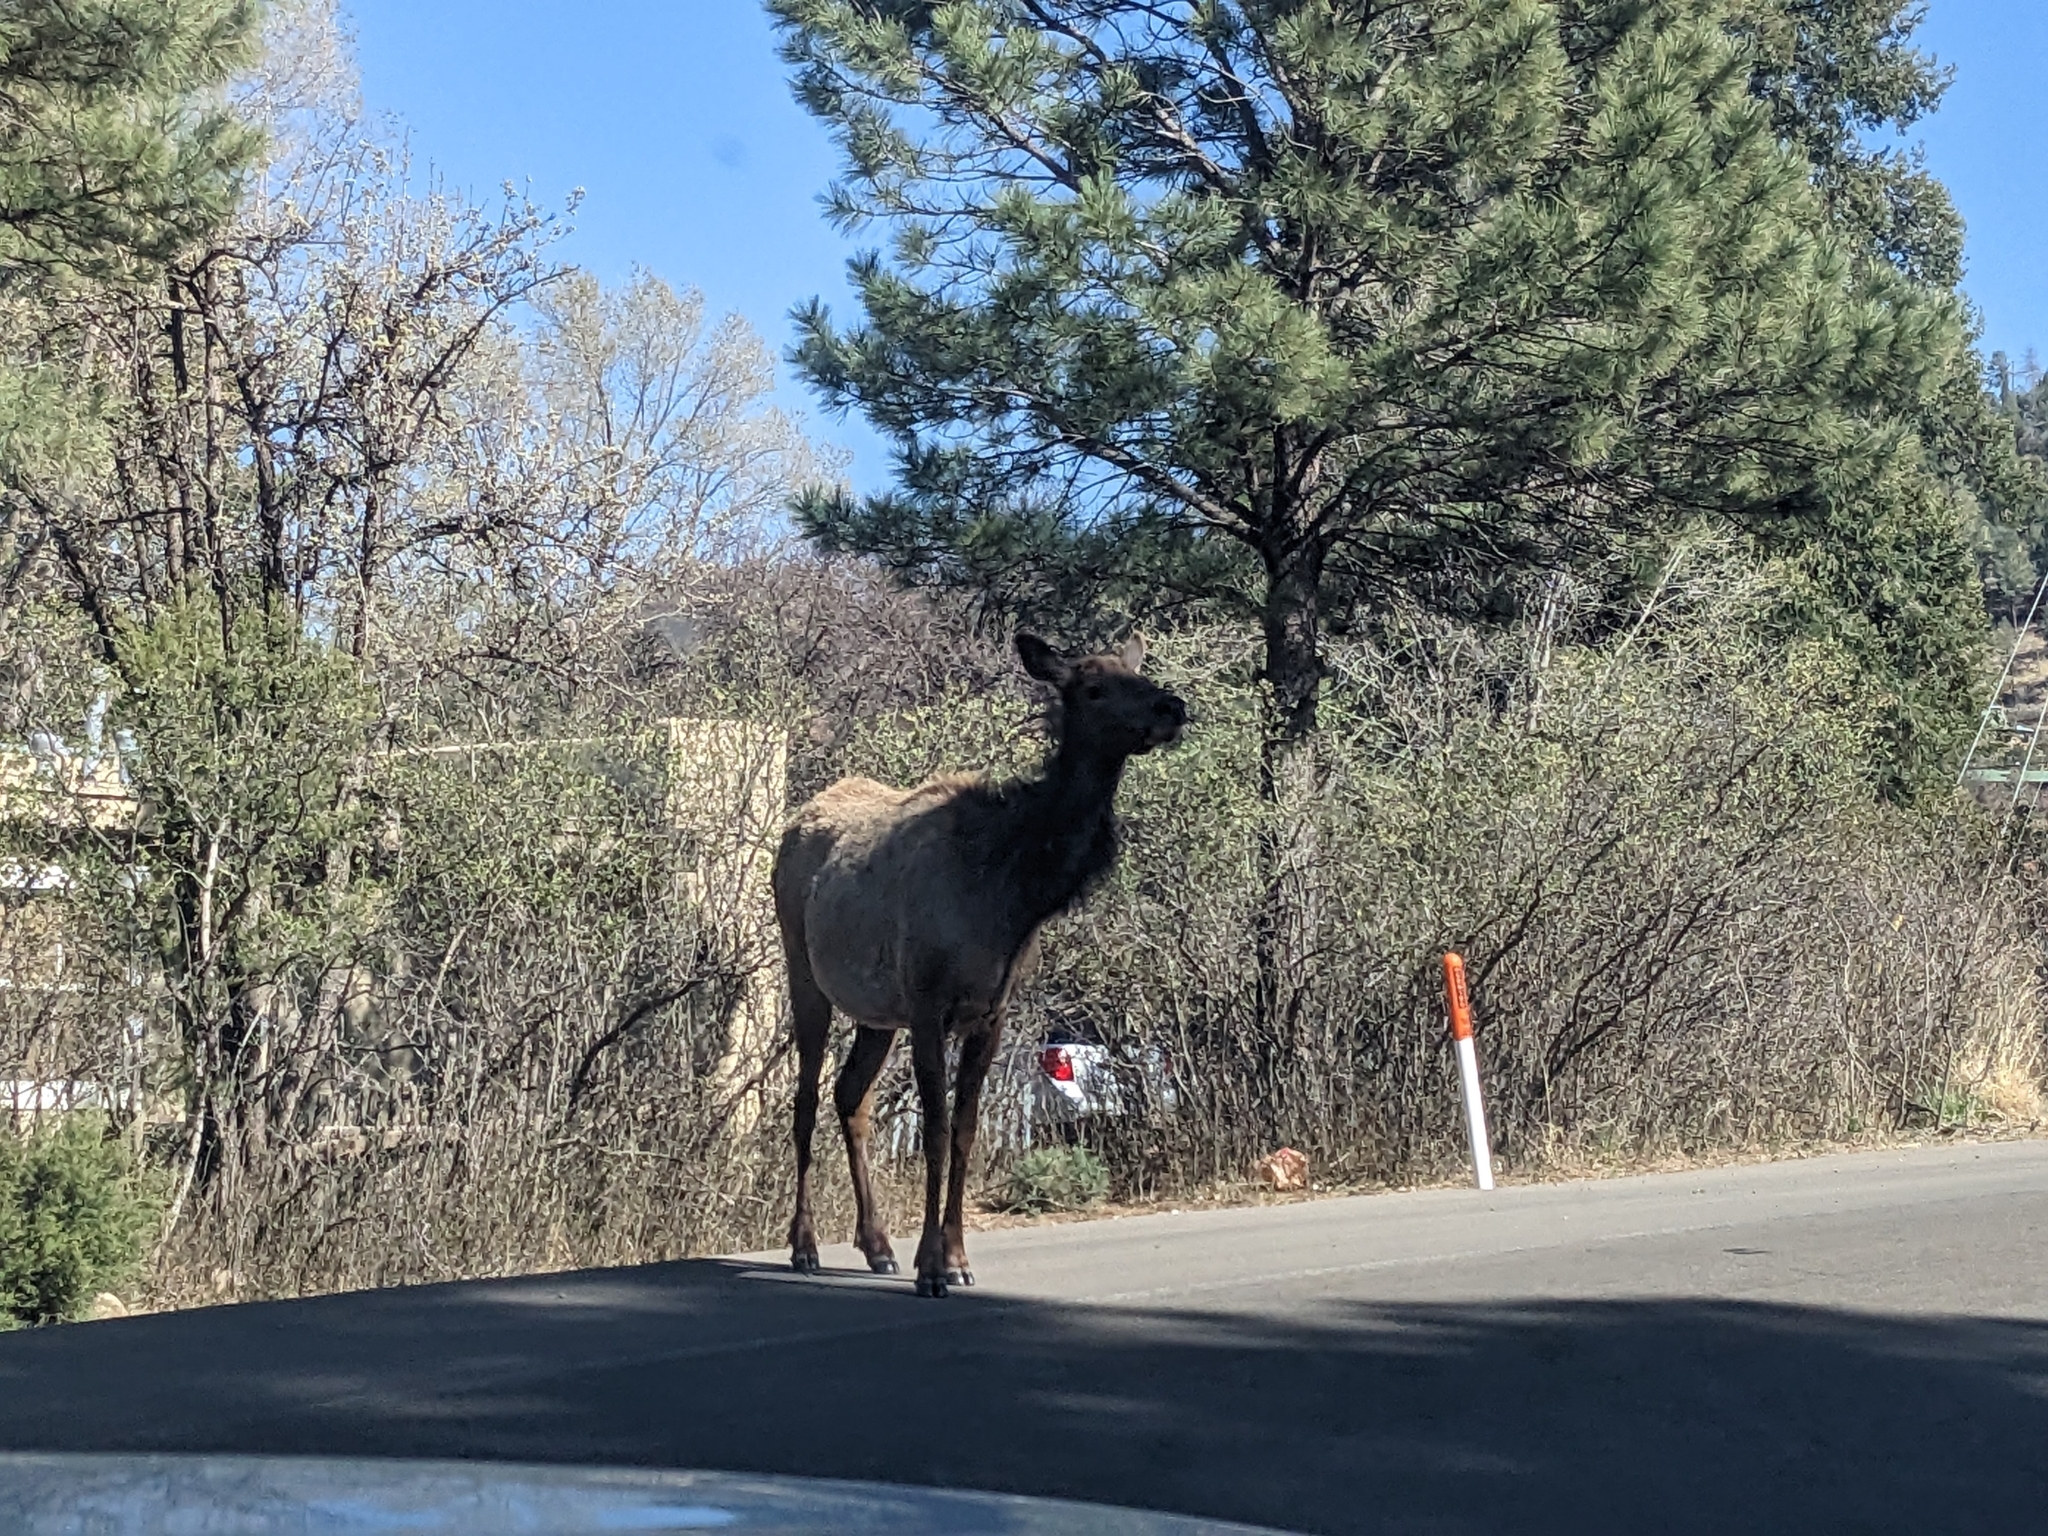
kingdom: Animalia
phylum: Chordata
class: Mammalia
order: Artiodactyla
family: Cervidae
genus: Cervus
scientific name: Cervus elaphus
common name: Red deer
